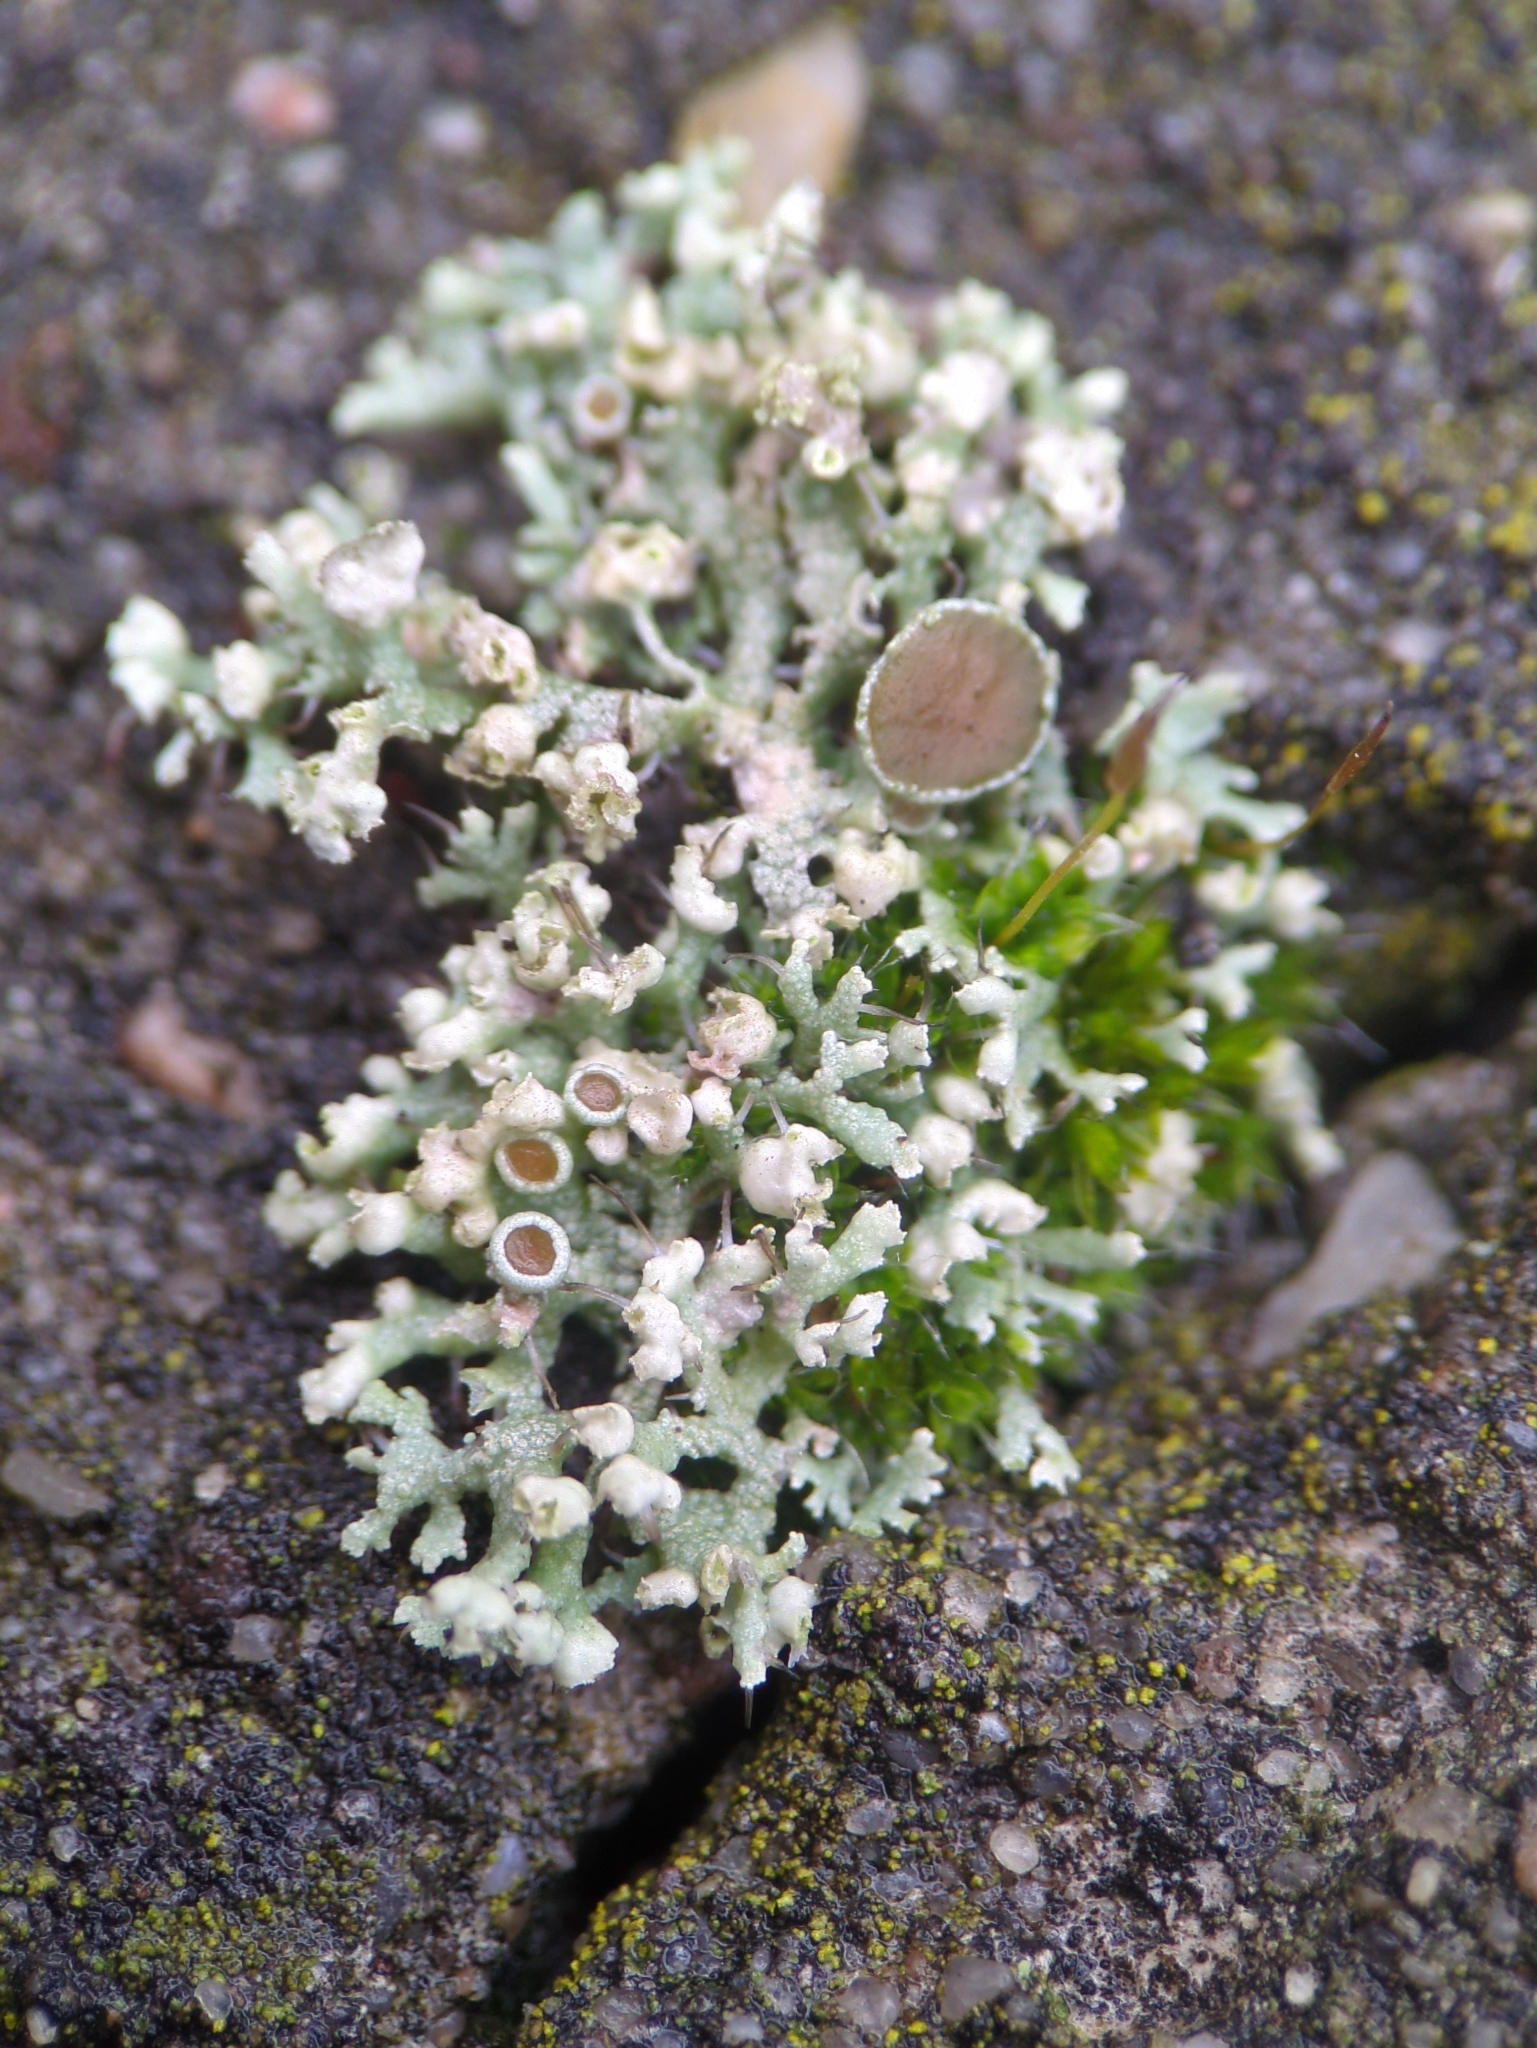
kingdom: Fungi
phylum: Ascomycota
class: Lecanoromycetes
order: Caliciales
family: Physciaceae
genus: Physcia
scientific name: Physcia adscendens
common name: Hooded rosette lichen
